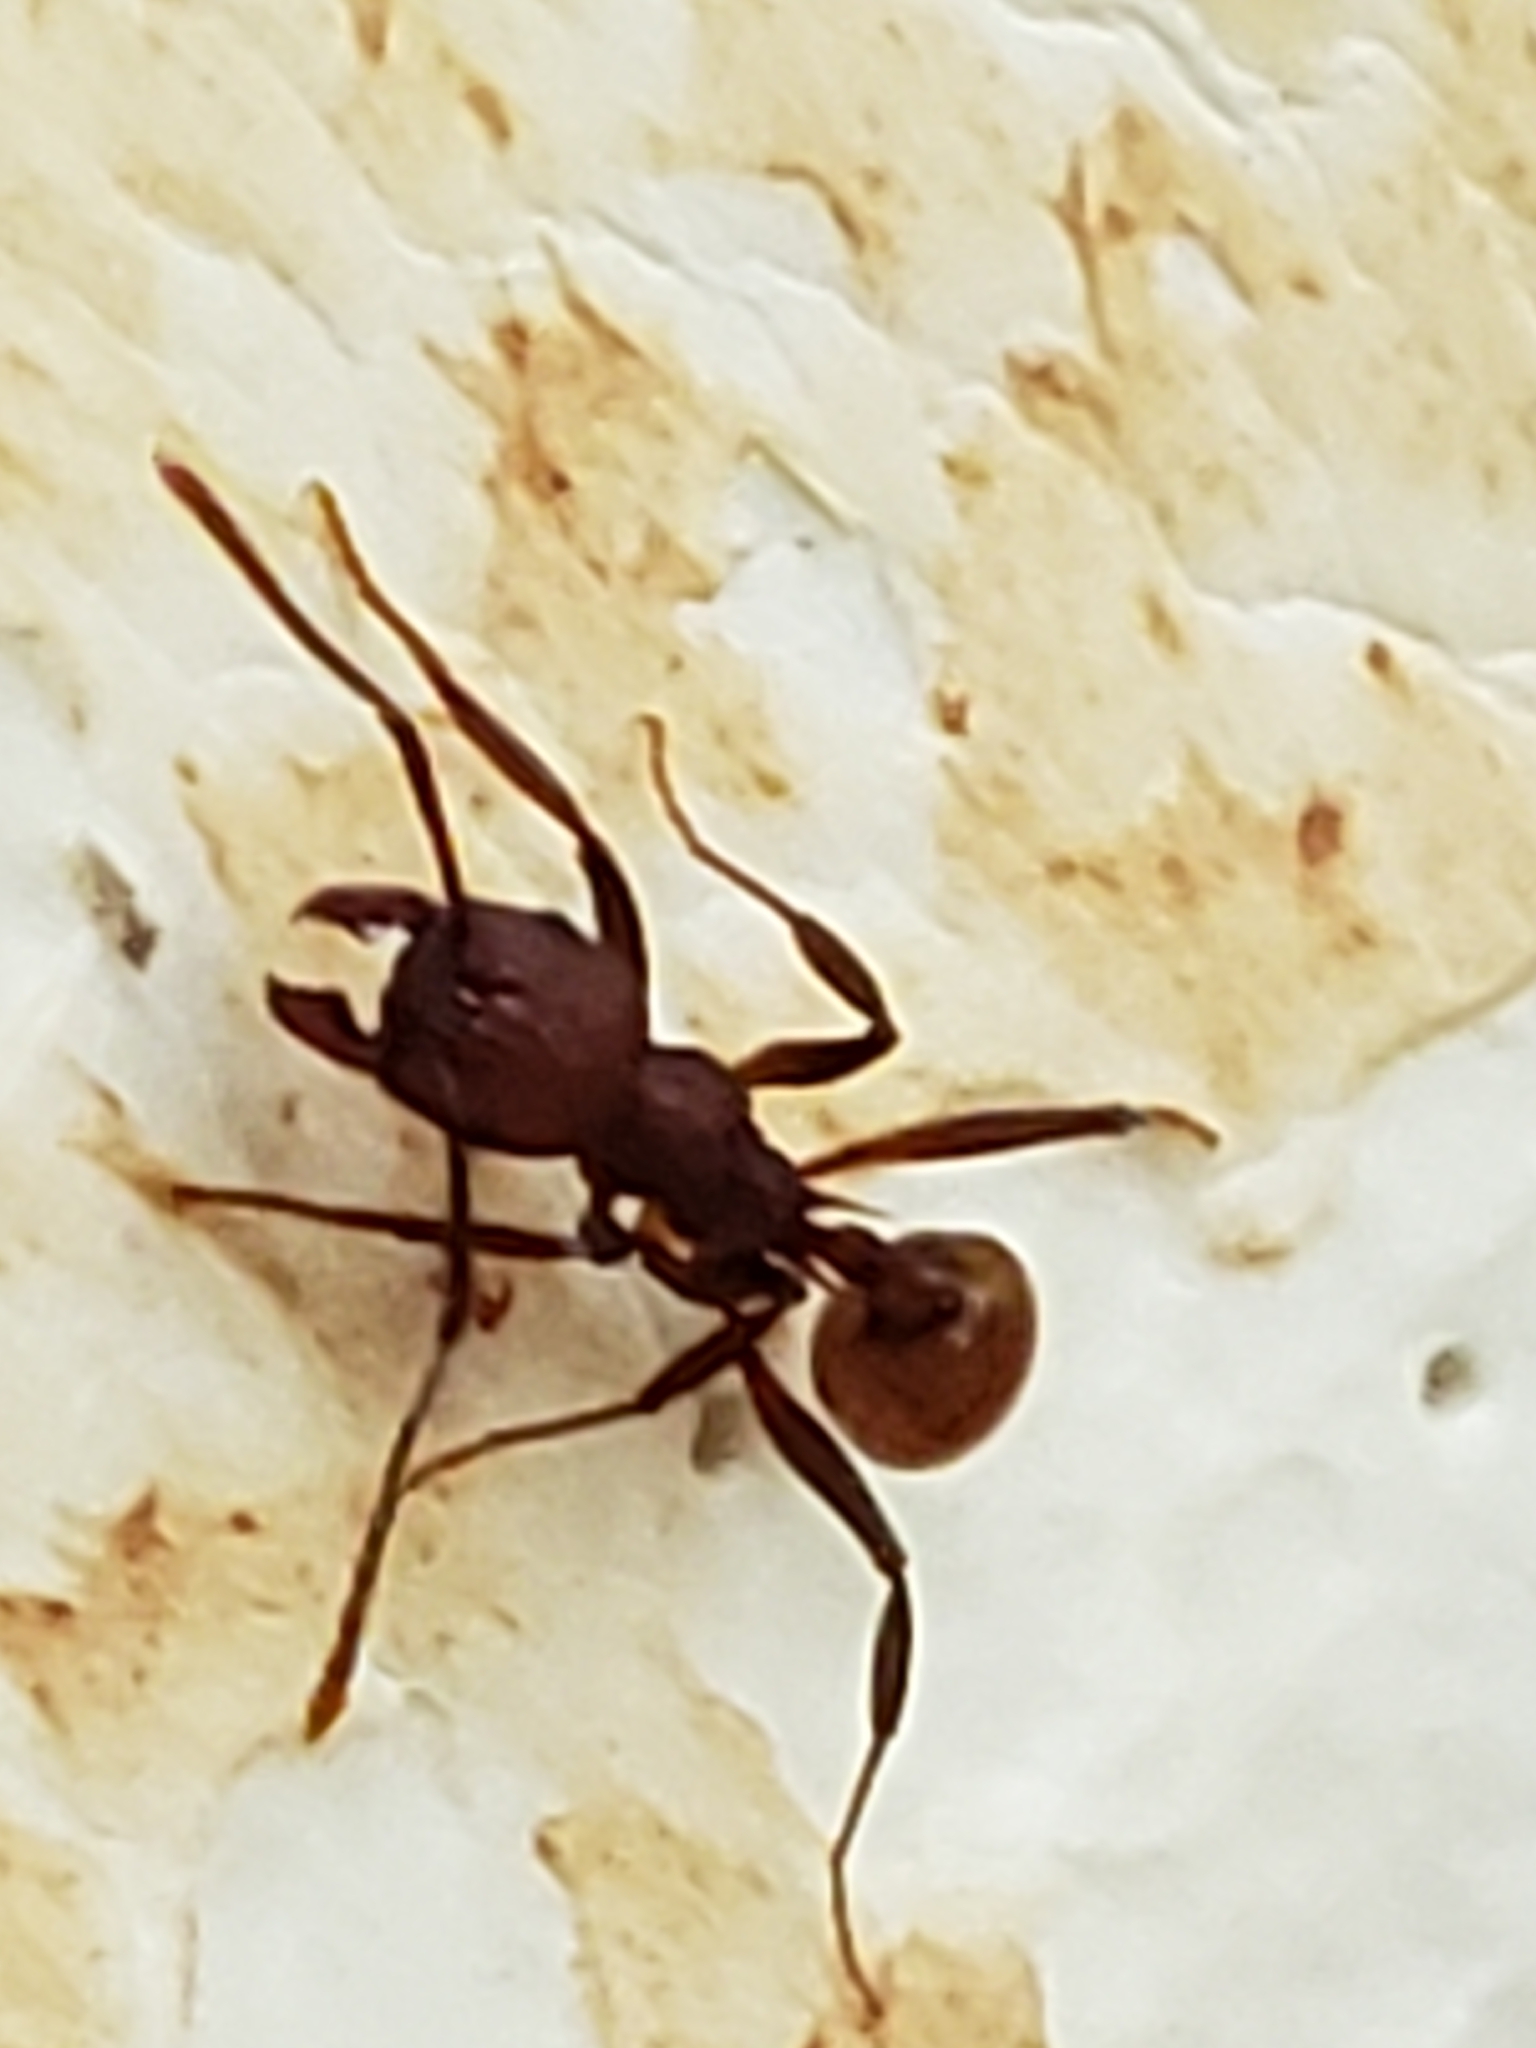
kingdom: Animalia
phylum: Arthropoda
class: Insecta
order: Hymenoptera
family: Formicidae
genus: Aphaenogaster
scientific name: Aphaenogaster tennesseensis
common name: Tennessee thread-waisted ant
